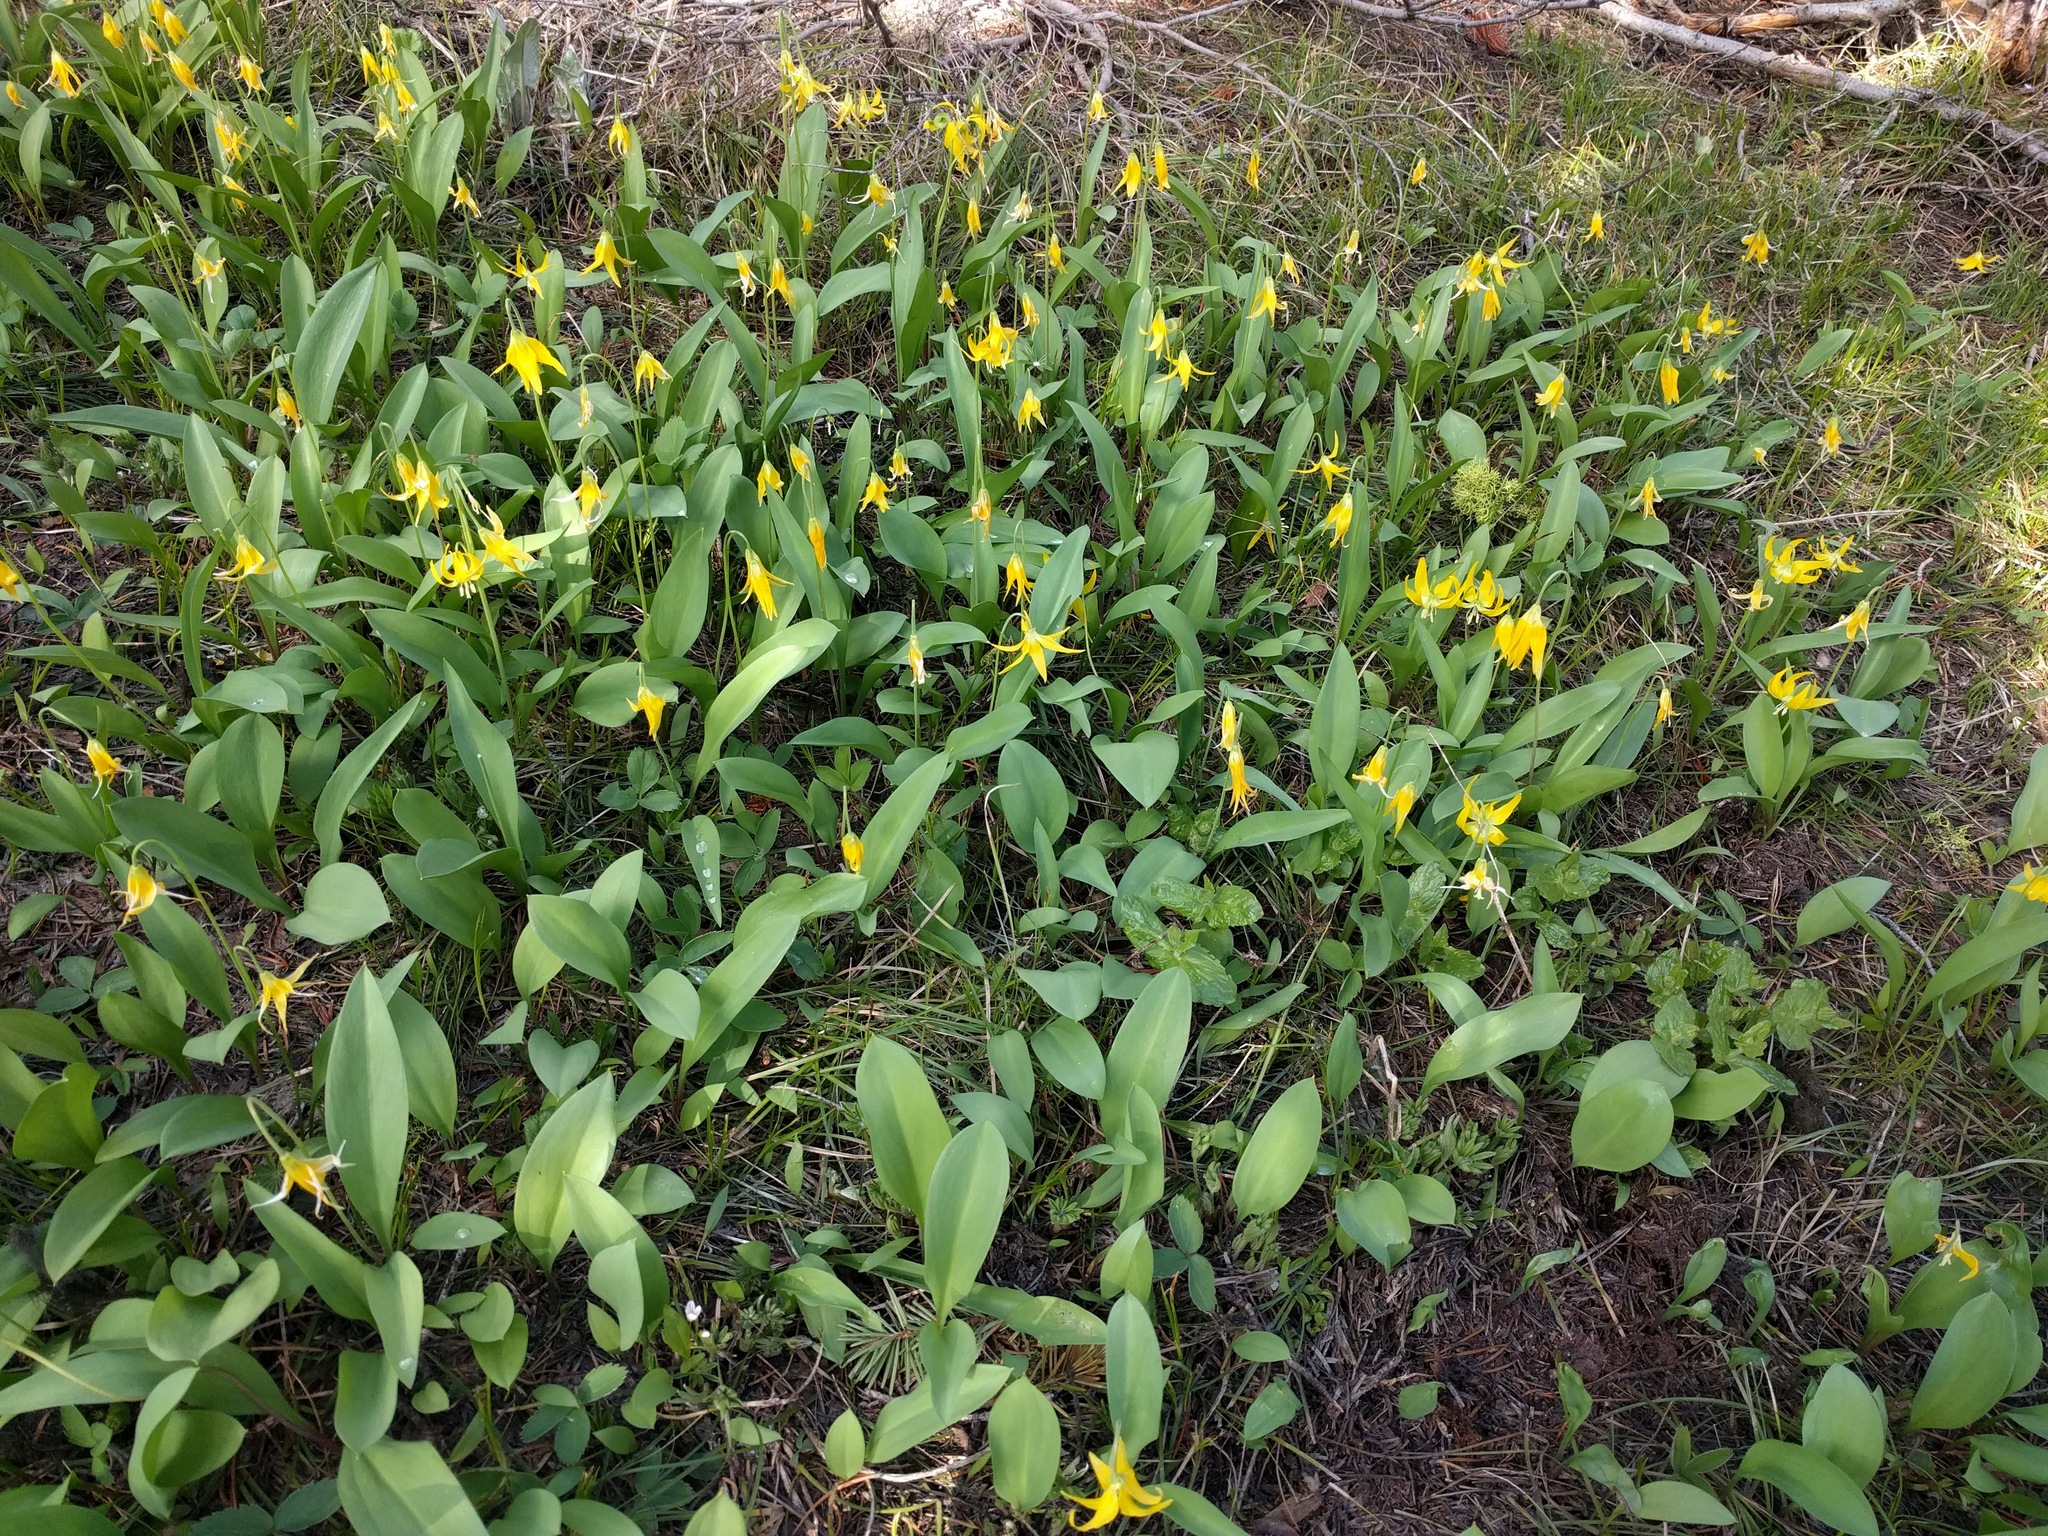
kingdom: Plantae
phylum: Tracheophyta
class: Liliopsida
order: Liliales
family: Liliaceae
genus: Erythronium
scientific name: Erythronium grandiflorum
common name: Avalanche-lily
